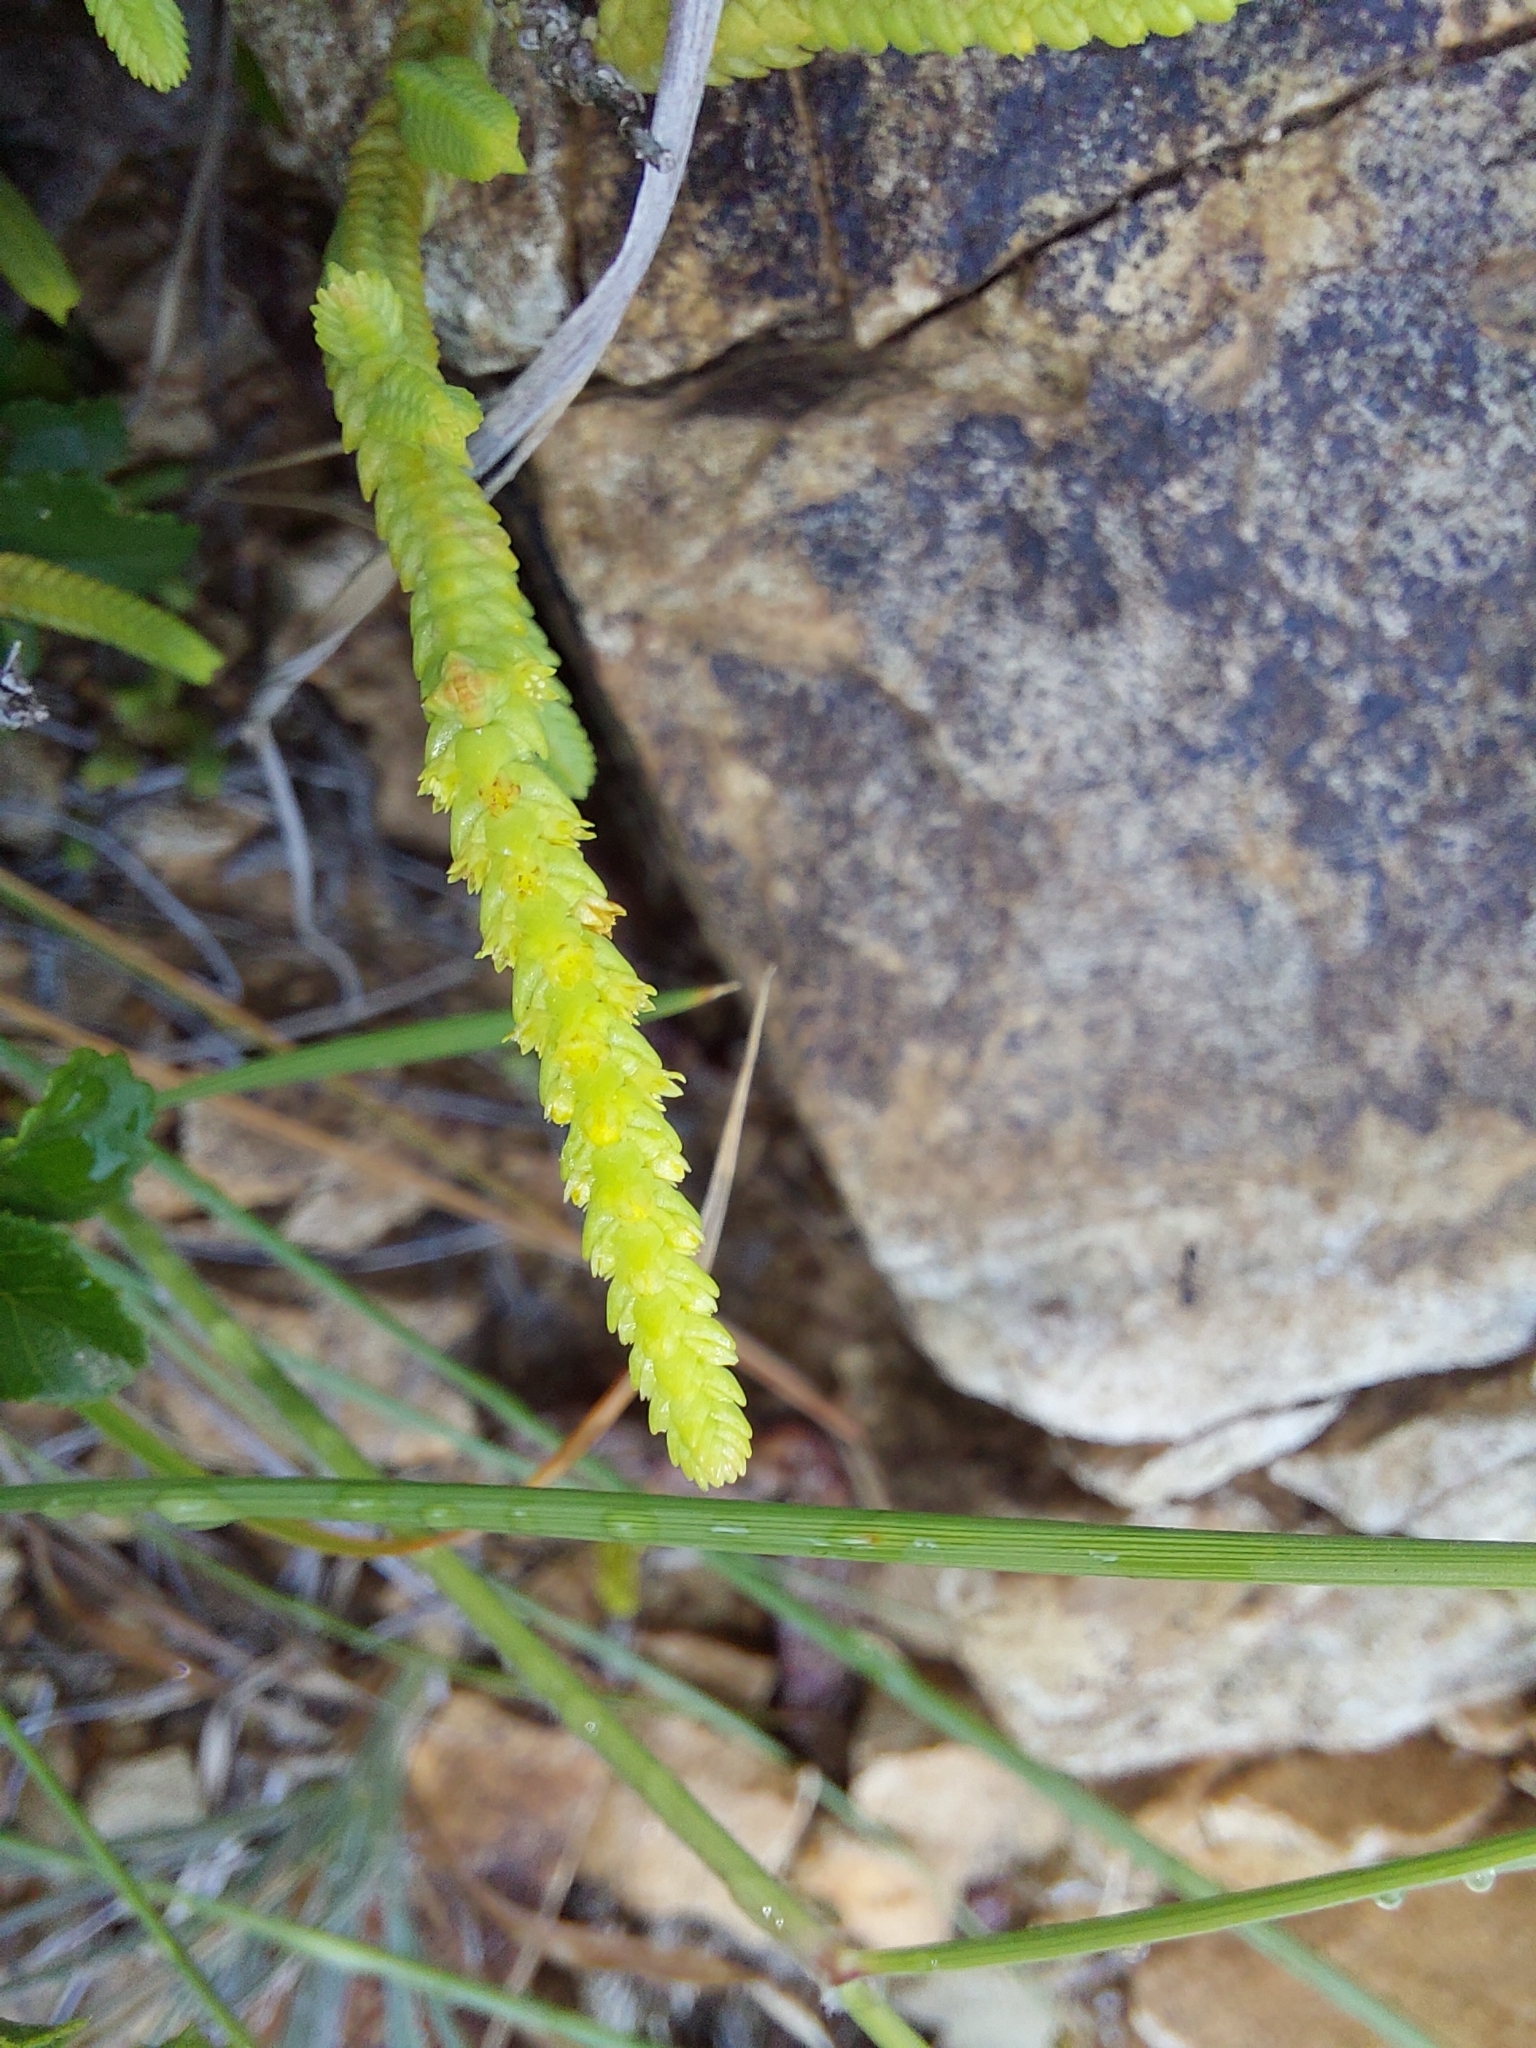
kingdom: Plantae
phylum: Tracheophyta
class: Magnoliopsida
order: Saxifragales
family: Crassulaceae
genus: Crassula
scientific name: Crassula muscosa
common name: Toy-cypress
